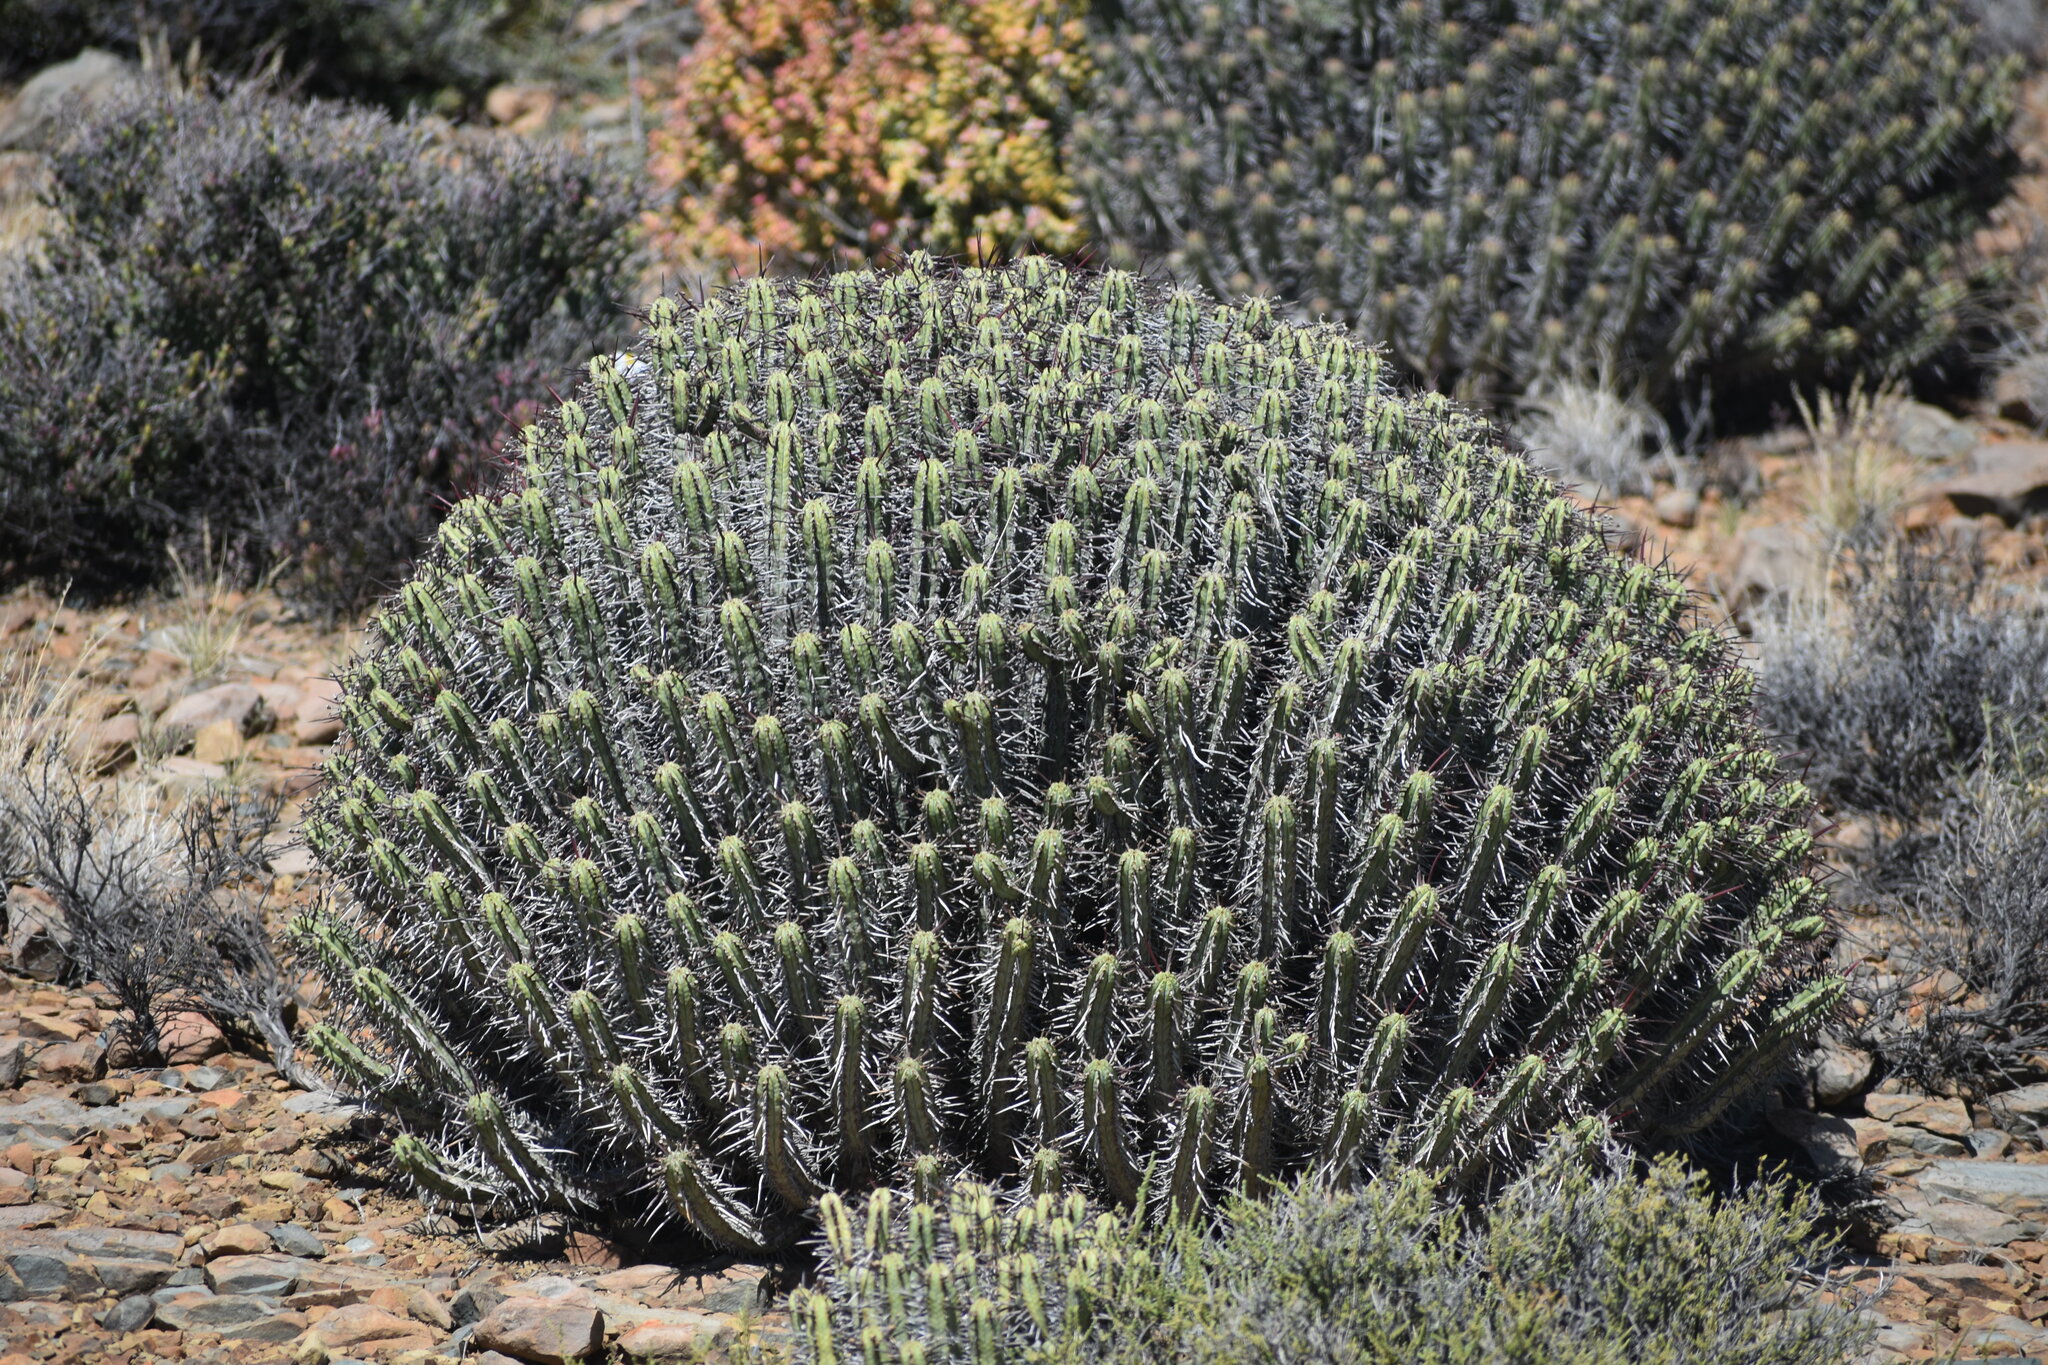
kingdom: Plantae
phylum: Tracheophyta
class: Magnoliopsida
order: Malpighiales
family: Euphorbiaceae
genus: Euphorbia
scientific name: Euphorbia heptagona
